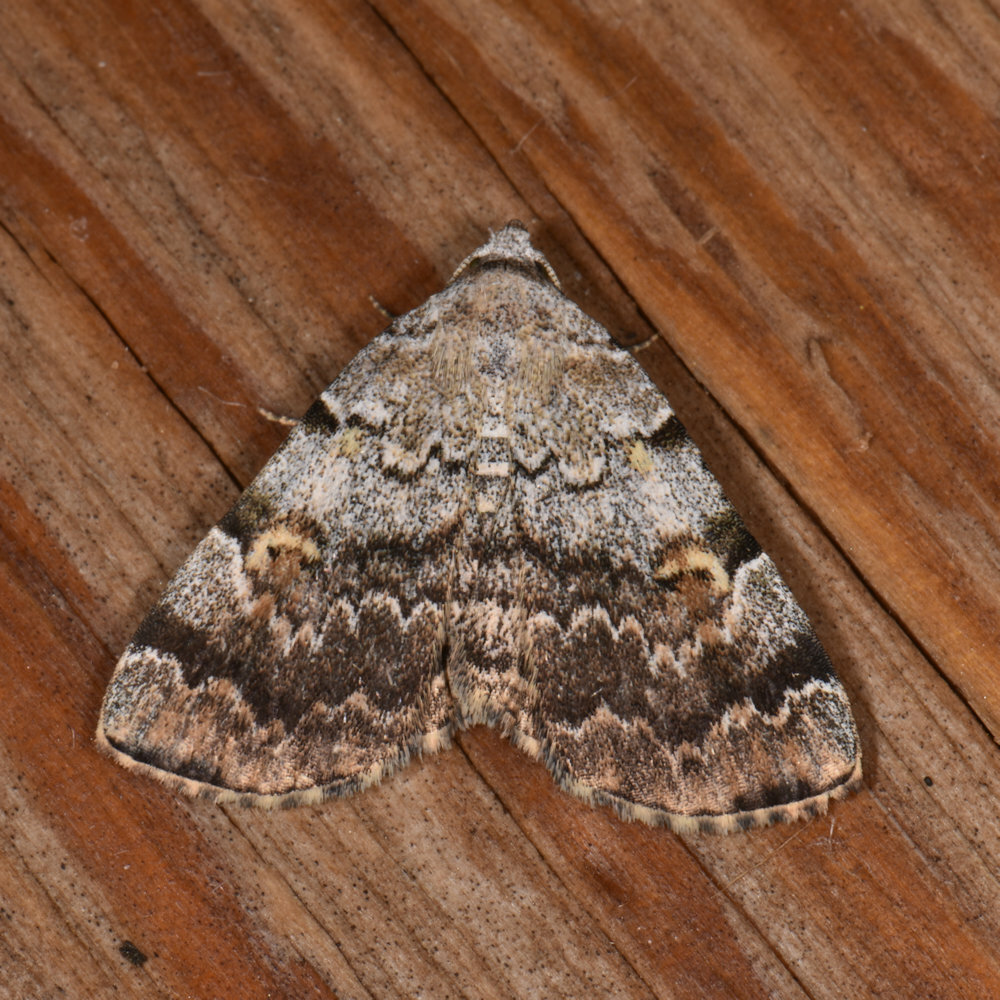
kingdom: Animalia
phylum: Arthropoda
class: Insecta
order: Lepidoptera
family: Erebidae
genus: Idia
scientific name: Idia americalis
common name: American idia moth
